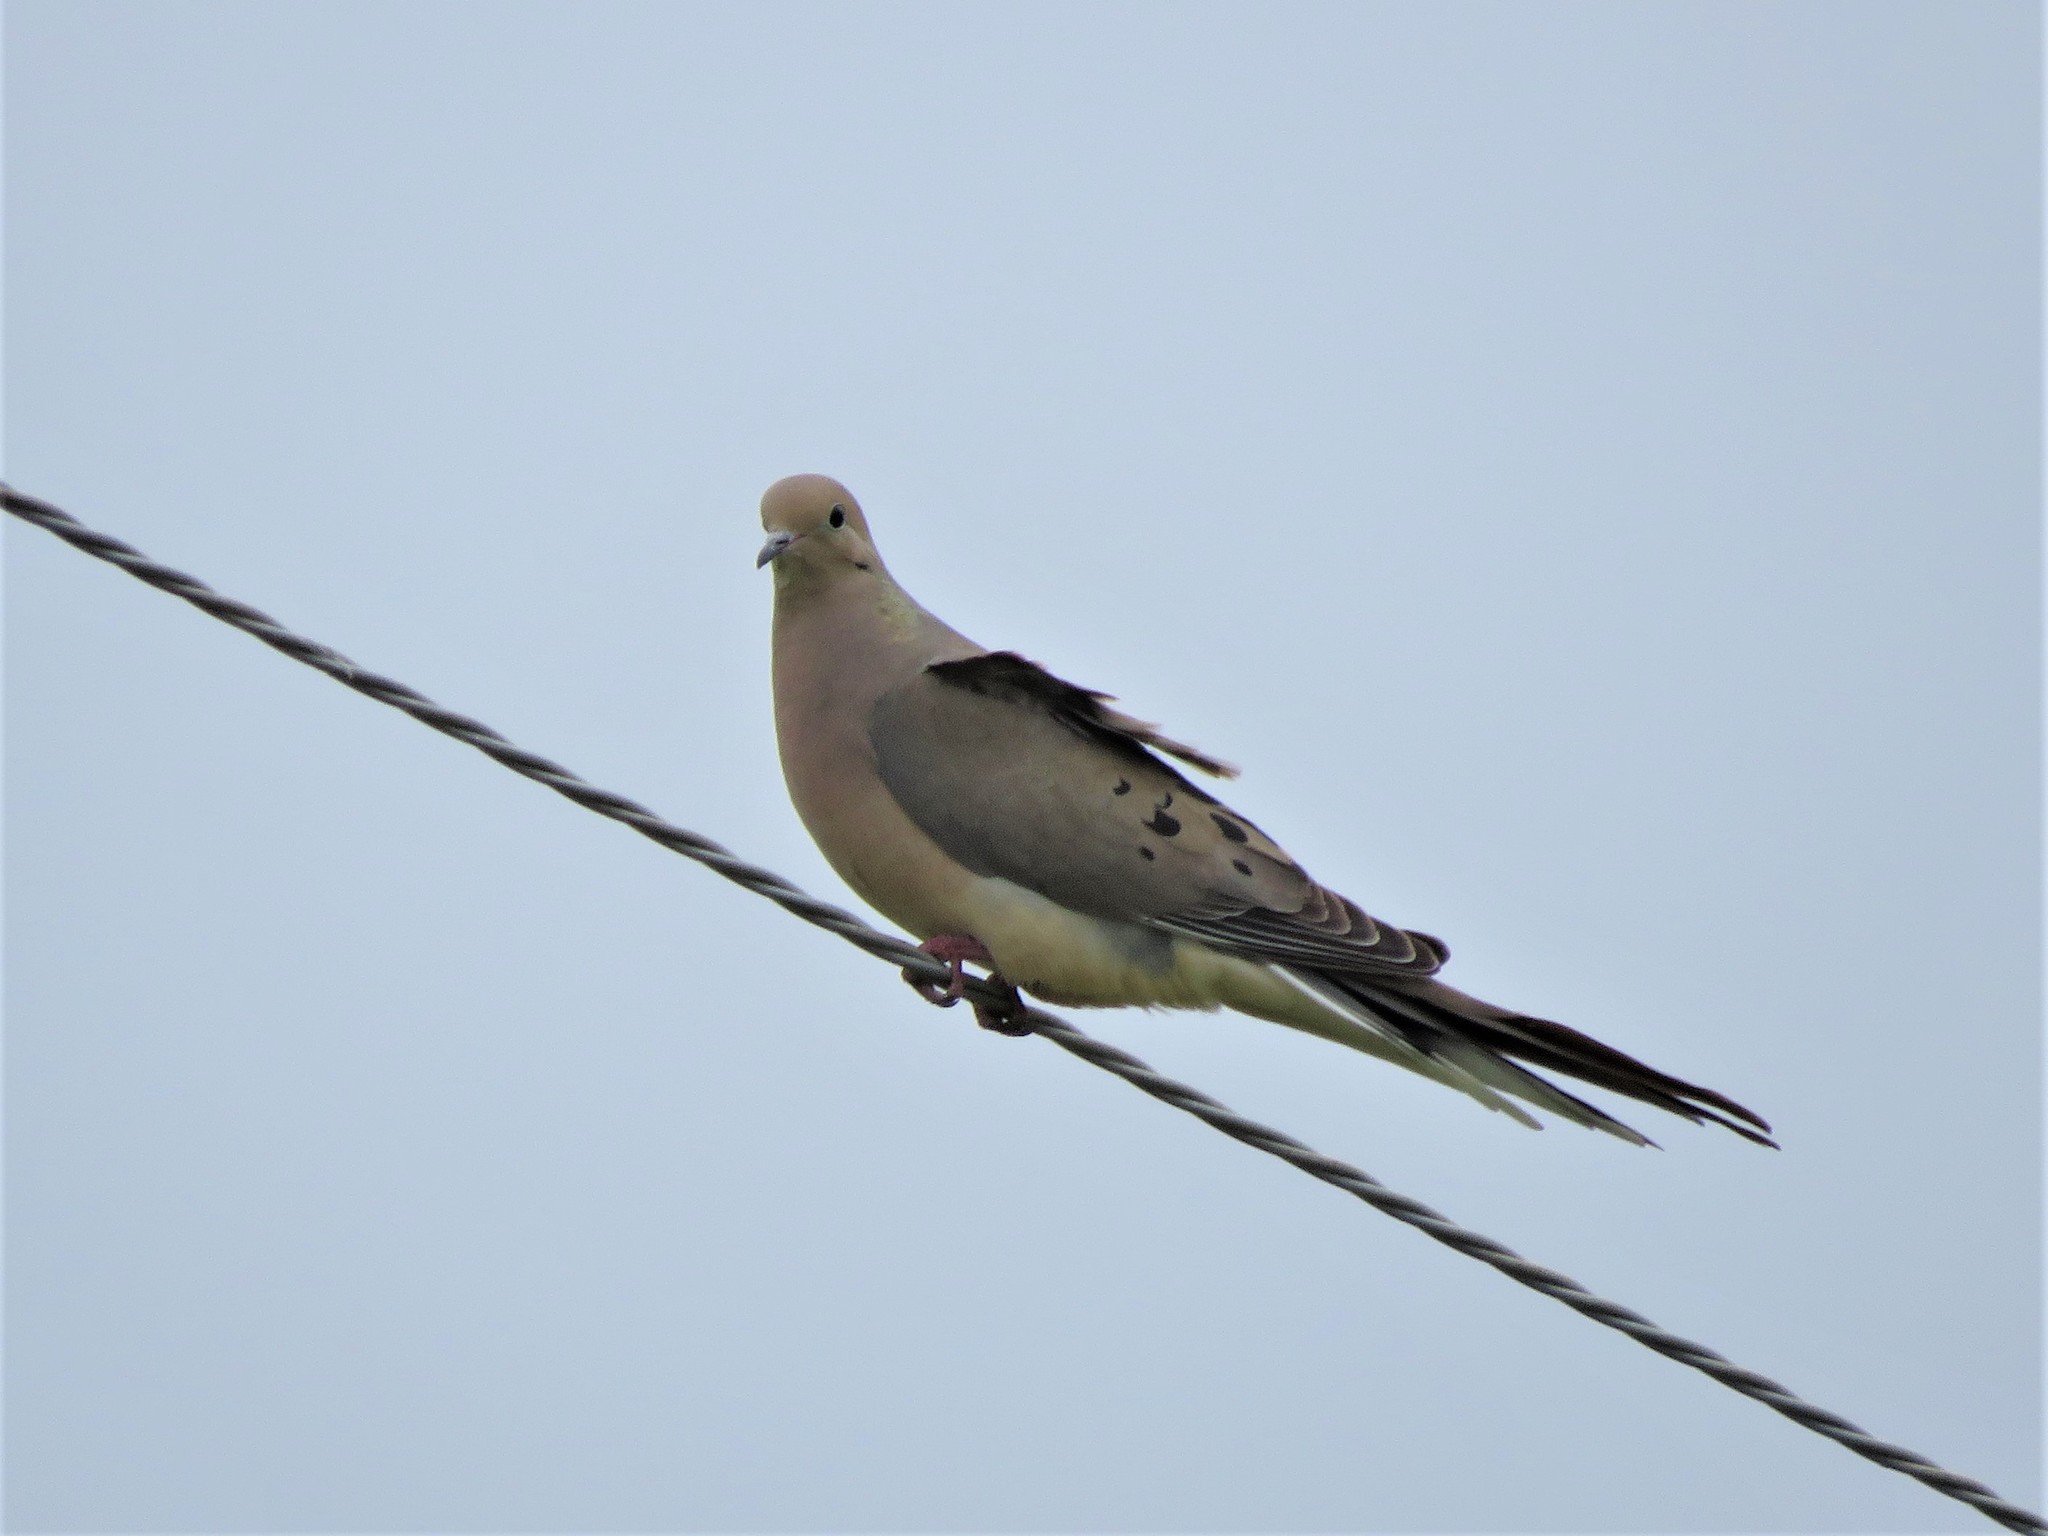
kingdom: Animalia
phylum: Chordata
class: Aves
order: Columbiformes
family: Columbidae
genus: Zenaida
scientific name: Zenaida macroura
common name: Mourning dove
